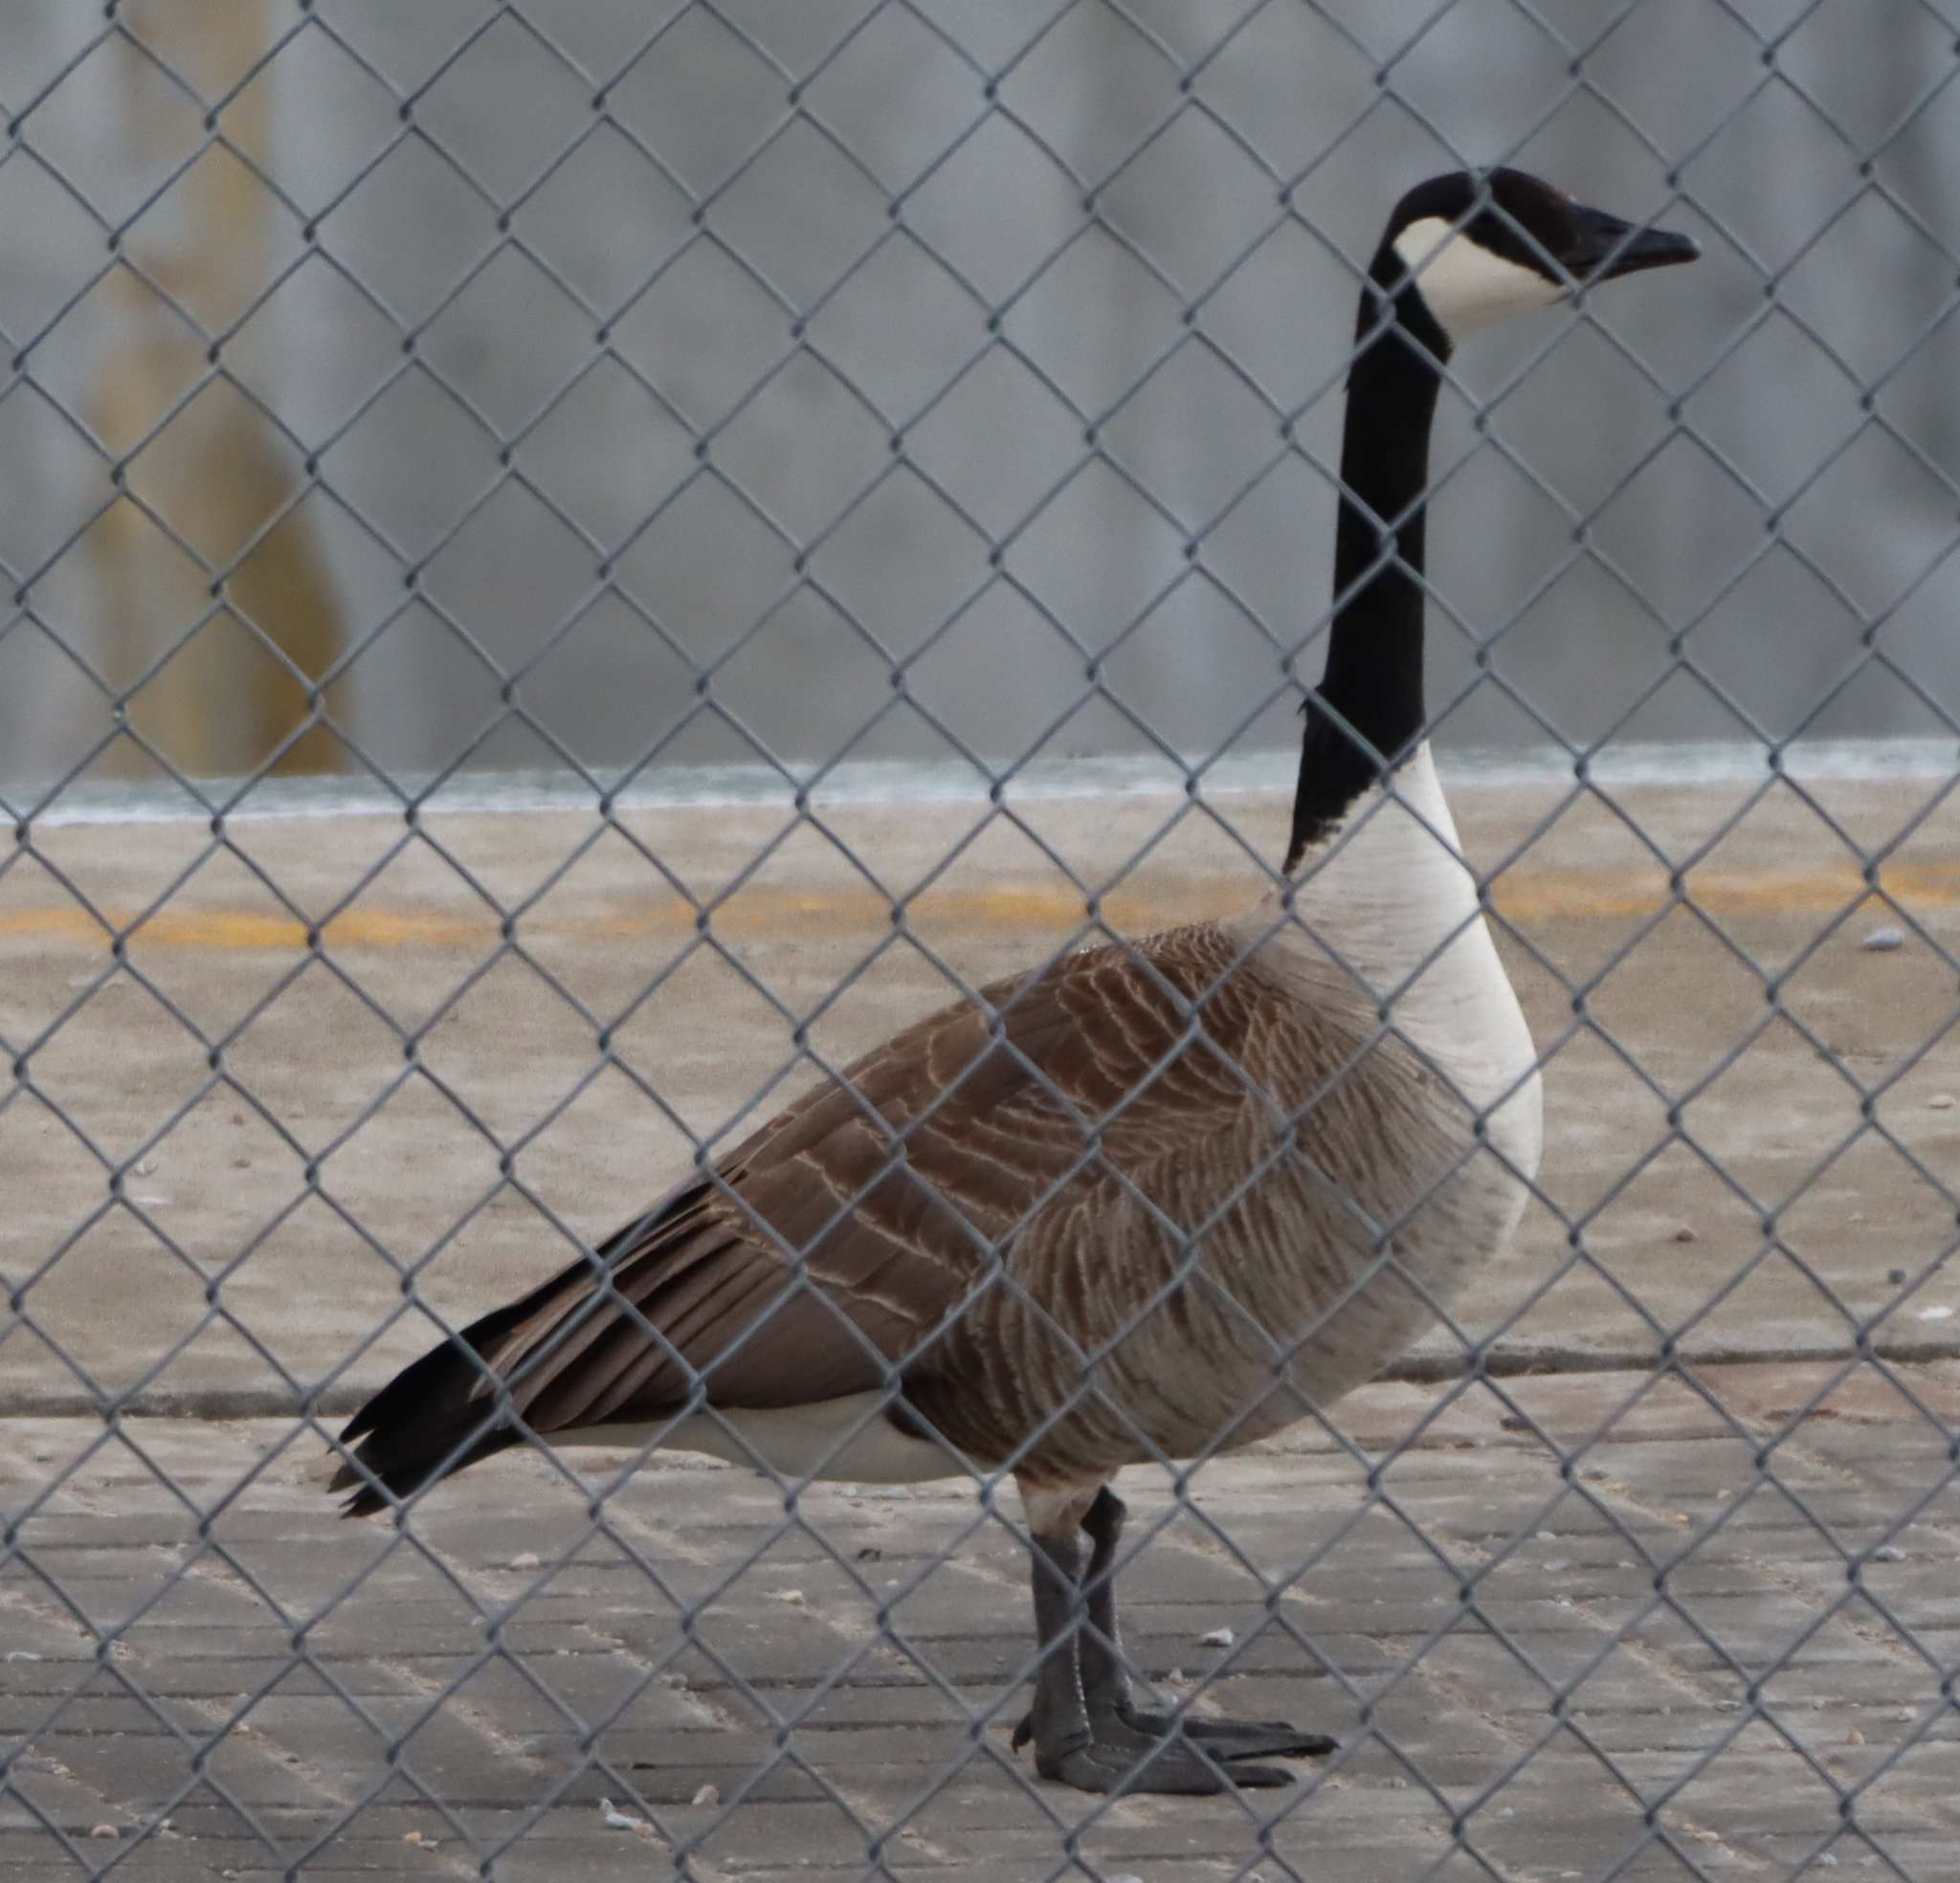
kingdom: Animalia
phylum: Chordata
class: Aves
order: Anseriformes
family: Anatidae
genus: Branta
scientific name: Branta canadensis
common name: Canada goose
